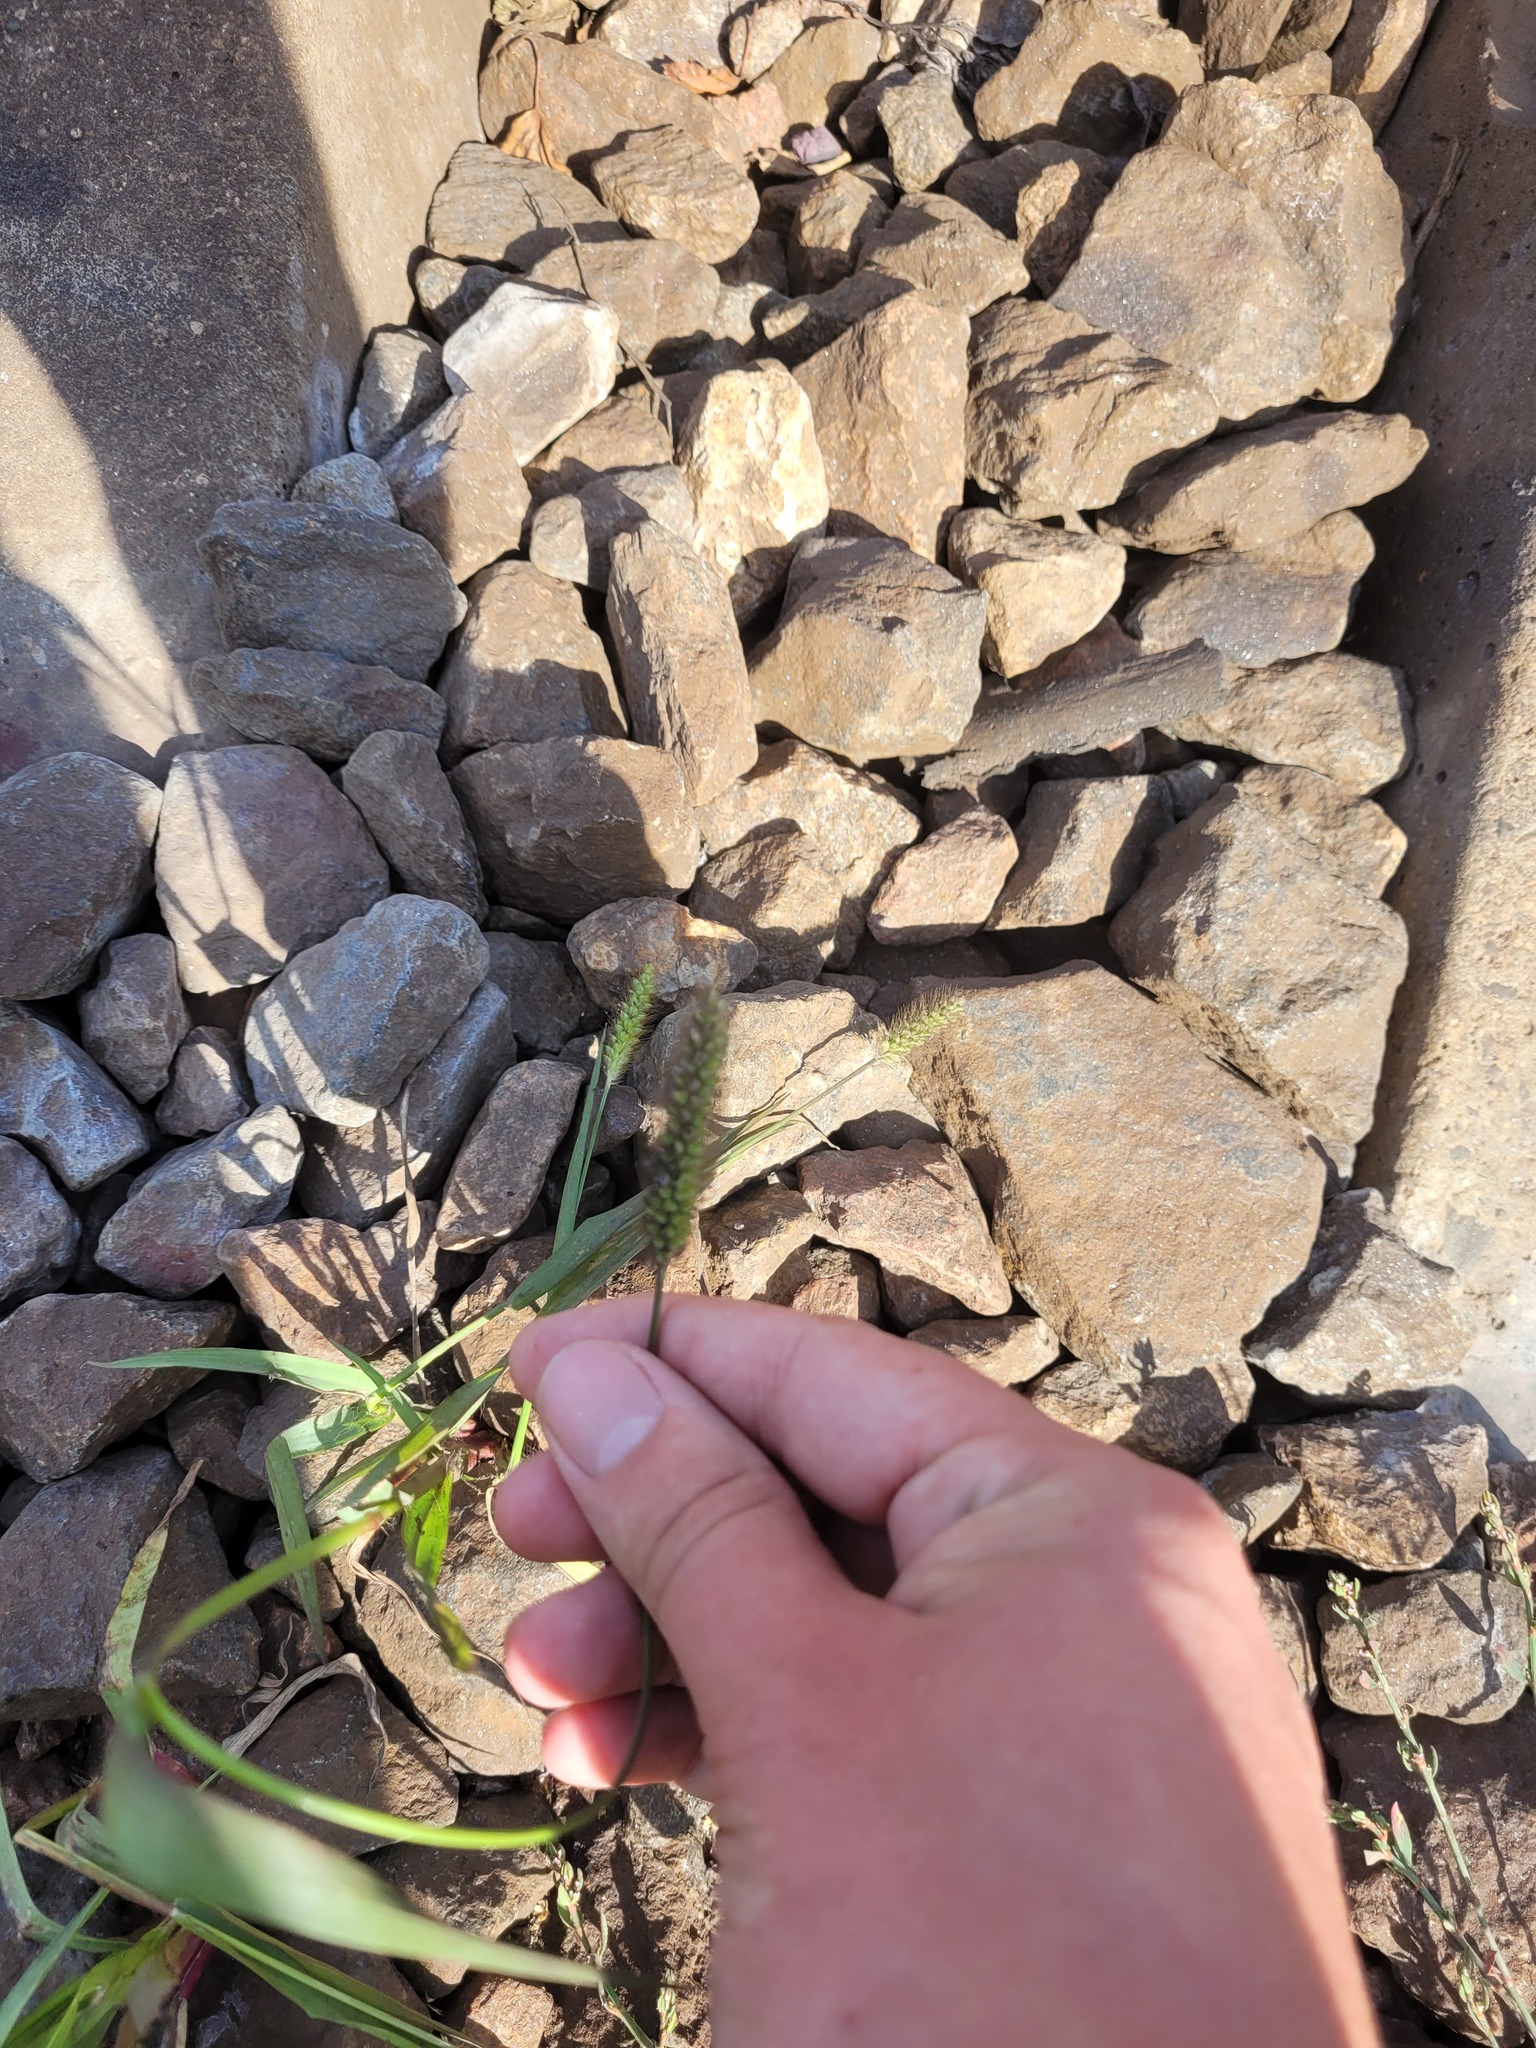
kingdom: Plantae
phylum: Tracheophyta
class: Liliopsida
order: Poales
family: Poaceae
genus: Setaria
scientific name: Setaria pumila
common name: Yellow bristle-grass
